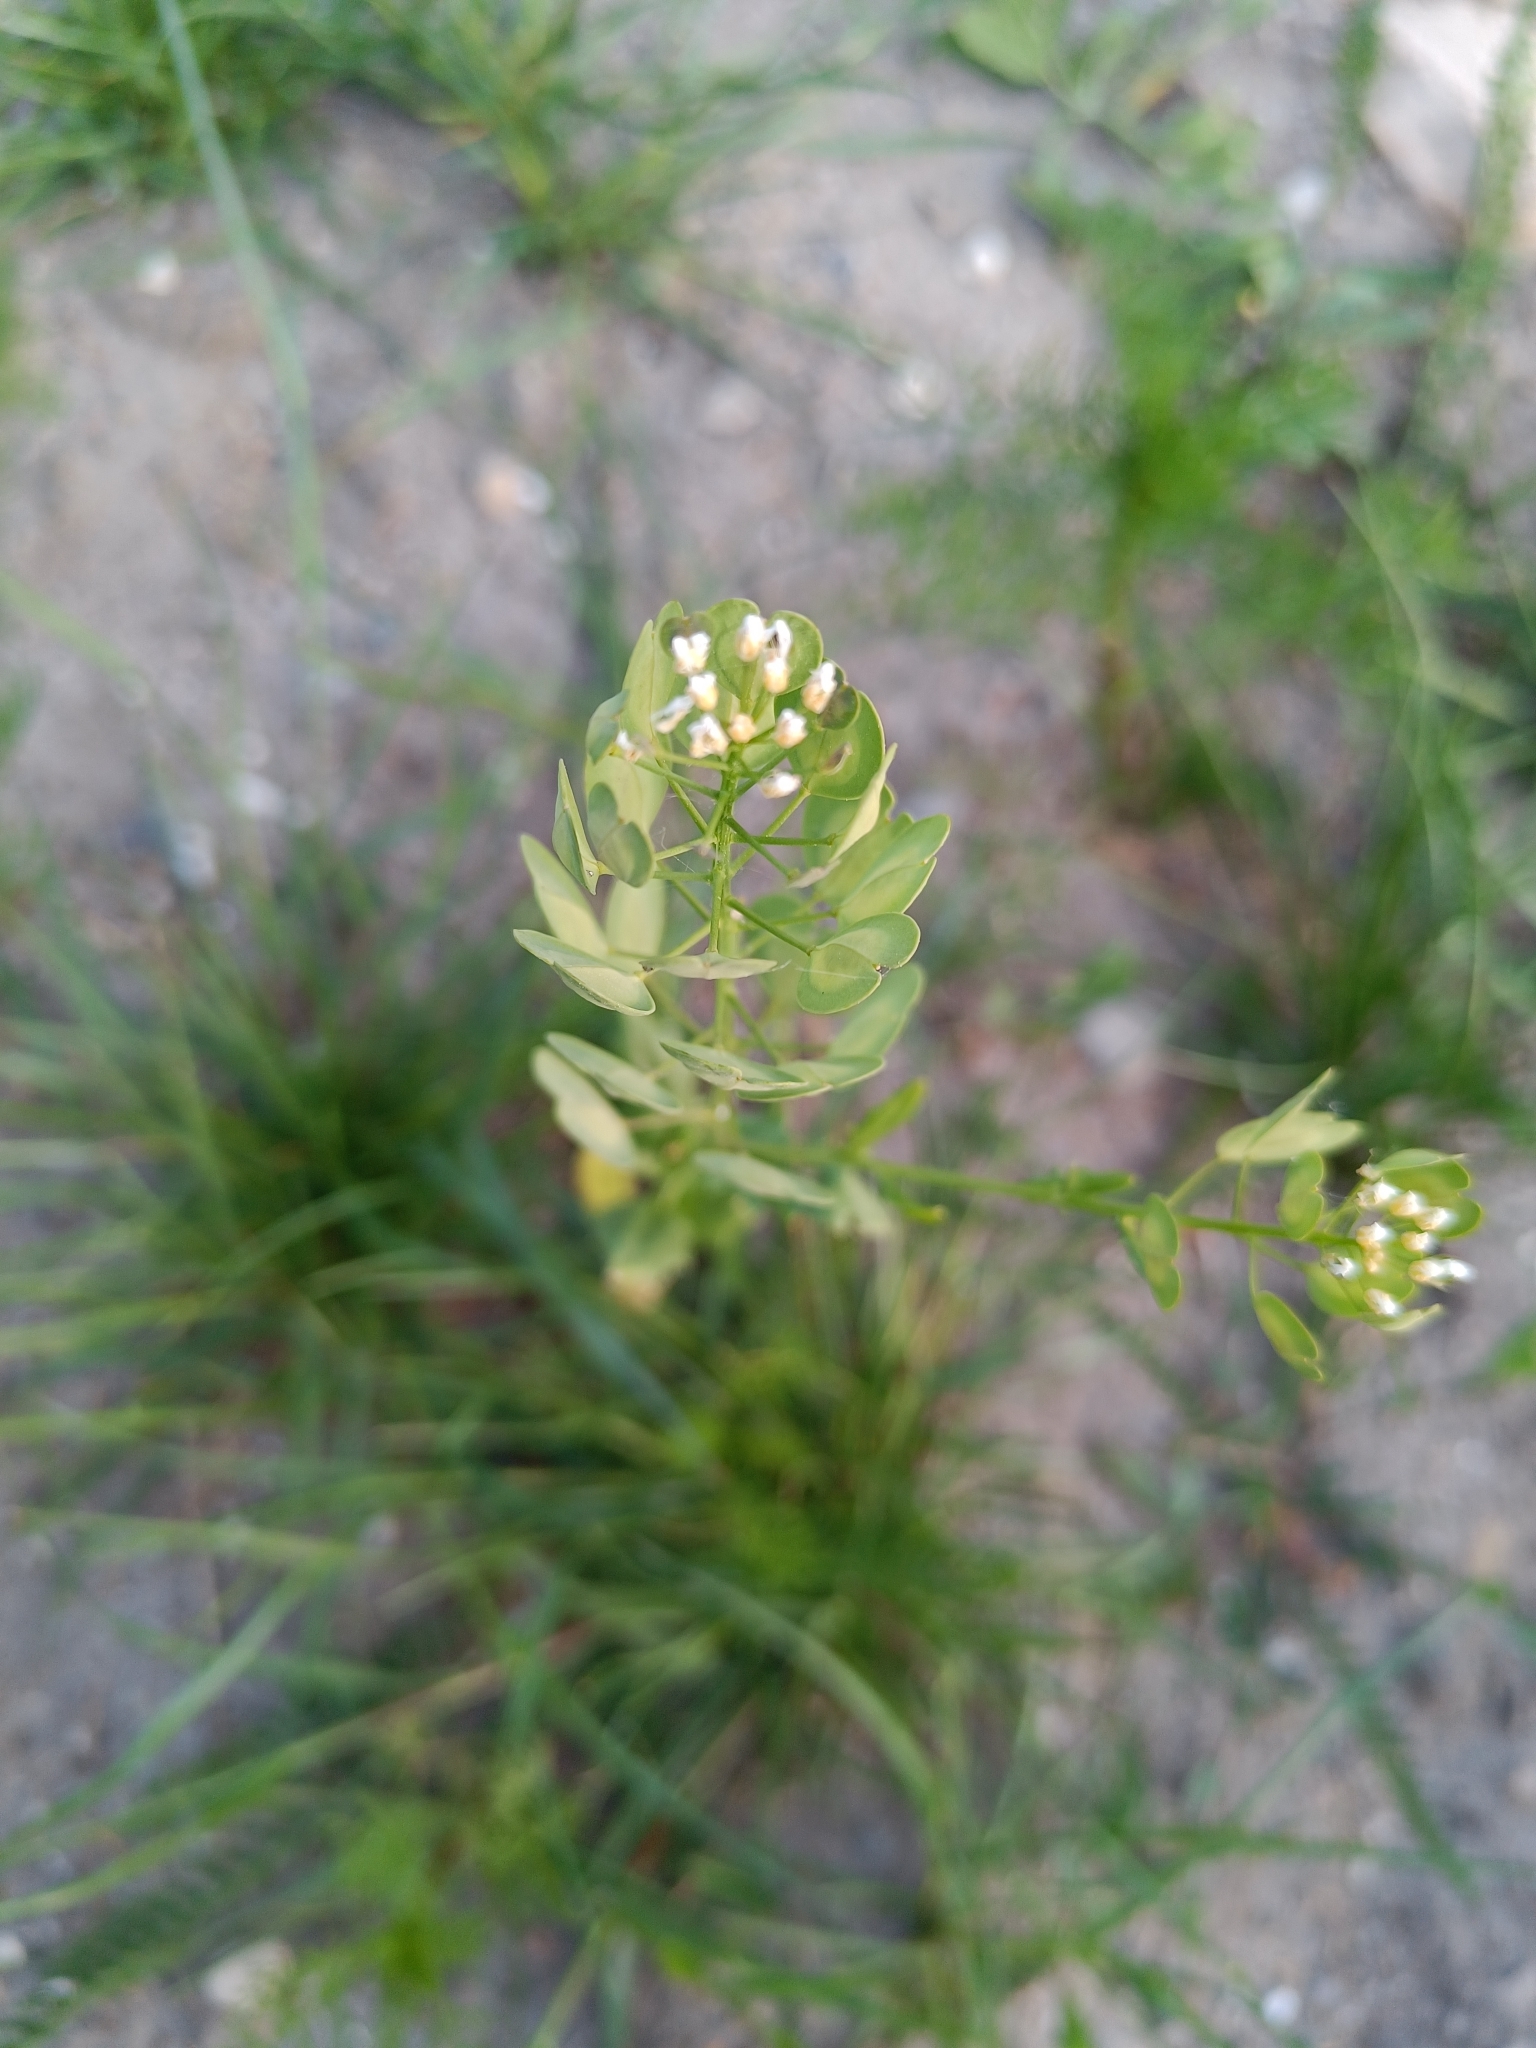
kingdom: Plantae
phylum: Tracheophyta
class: Magnoliopsida
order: Brassicales
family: Brassicaceae
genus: Thlaspi
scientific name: Thlaspi arvense
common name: Field pennycress
